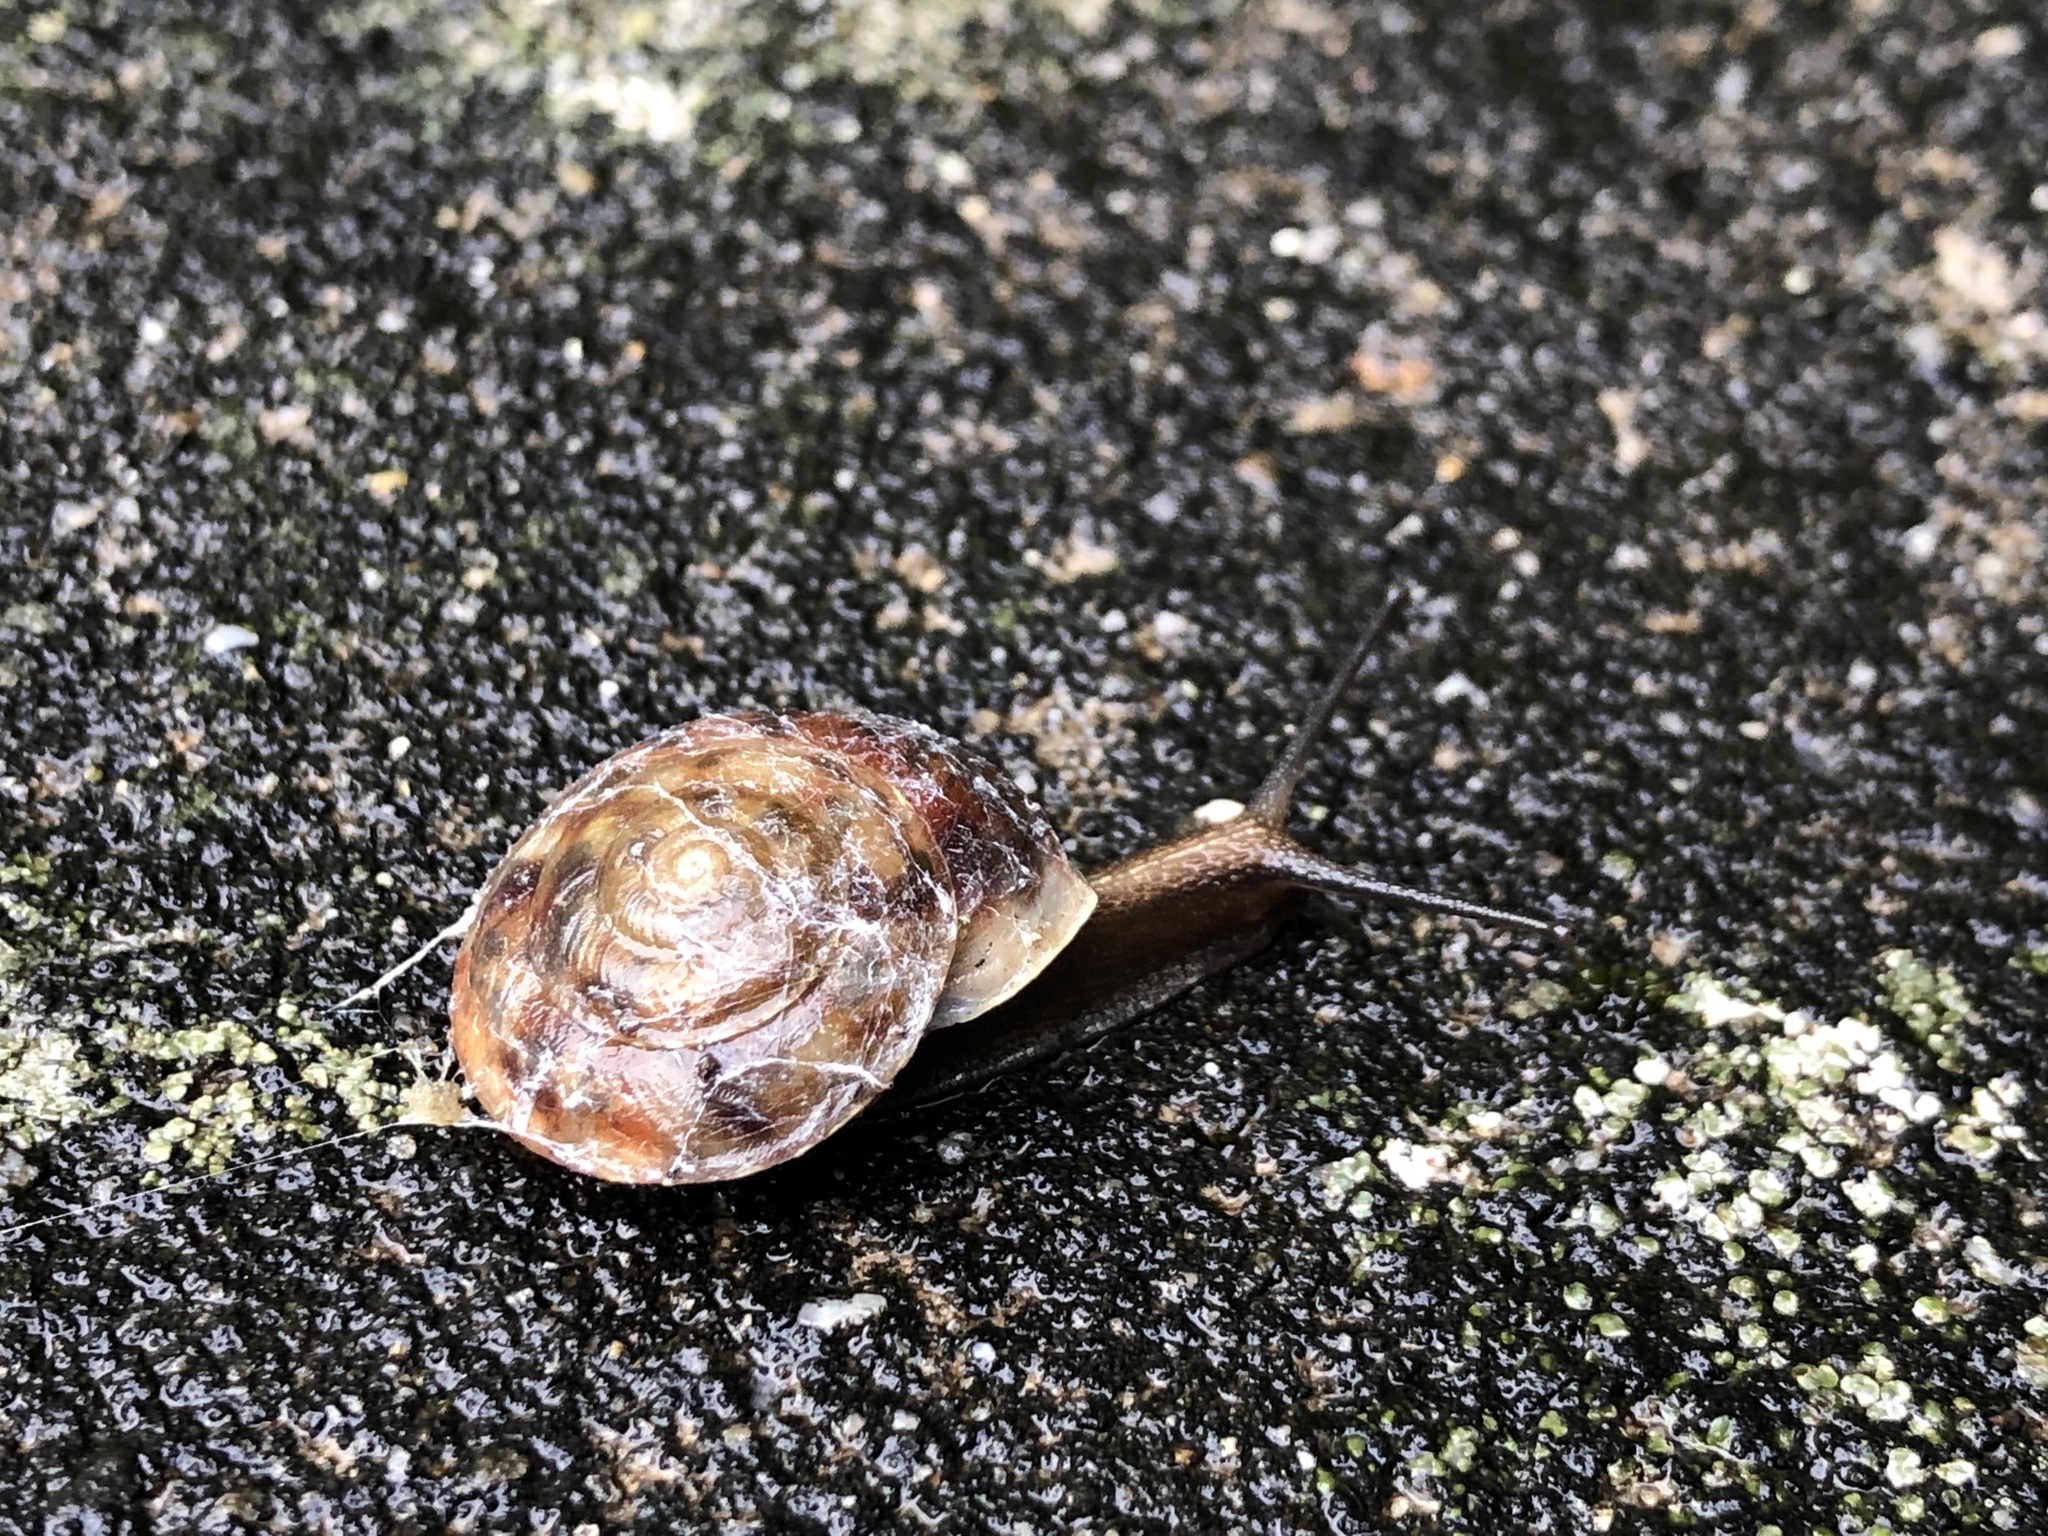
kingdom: Animalia
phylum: Mollusca
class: Gastropoda
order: Stylommatophora
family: Helicidae
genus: Helicigona
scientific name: Helicigona lapicida
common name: Lapidary snail
